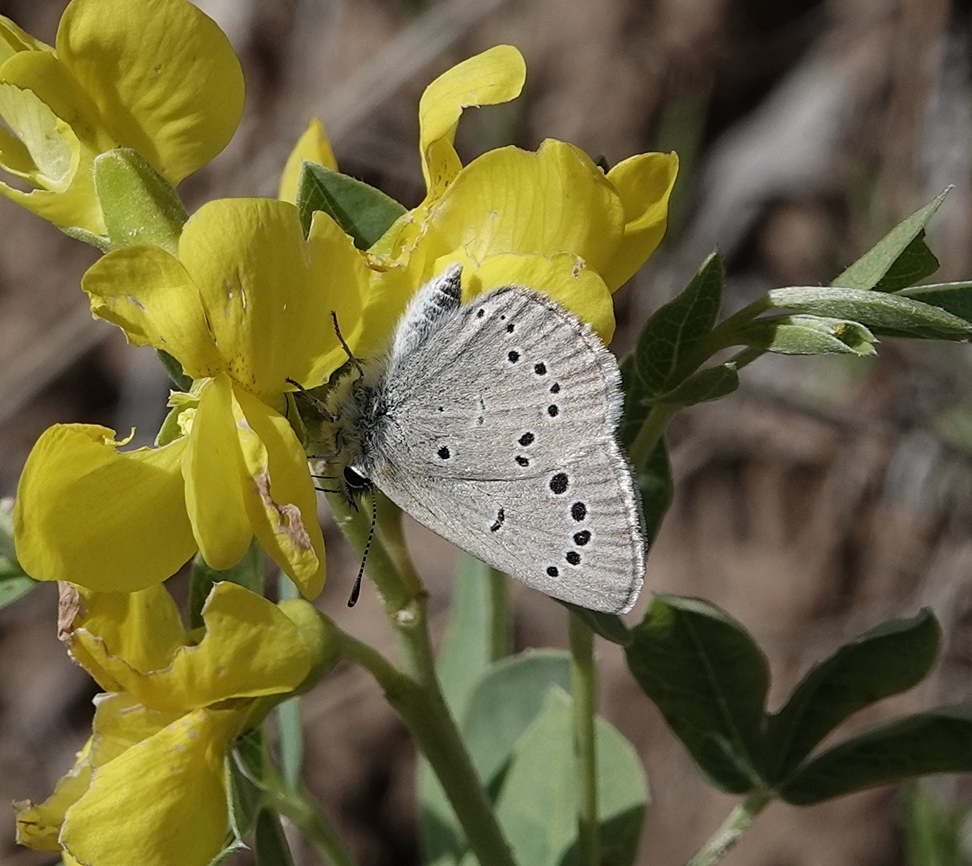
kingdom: Animalia
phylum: Arthropoda
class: Insecta
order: Lepidoptera
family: Lycaenidae
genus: Glaucopsyche
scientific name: Glaucopsyche lygdamus
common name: Silvery blue
